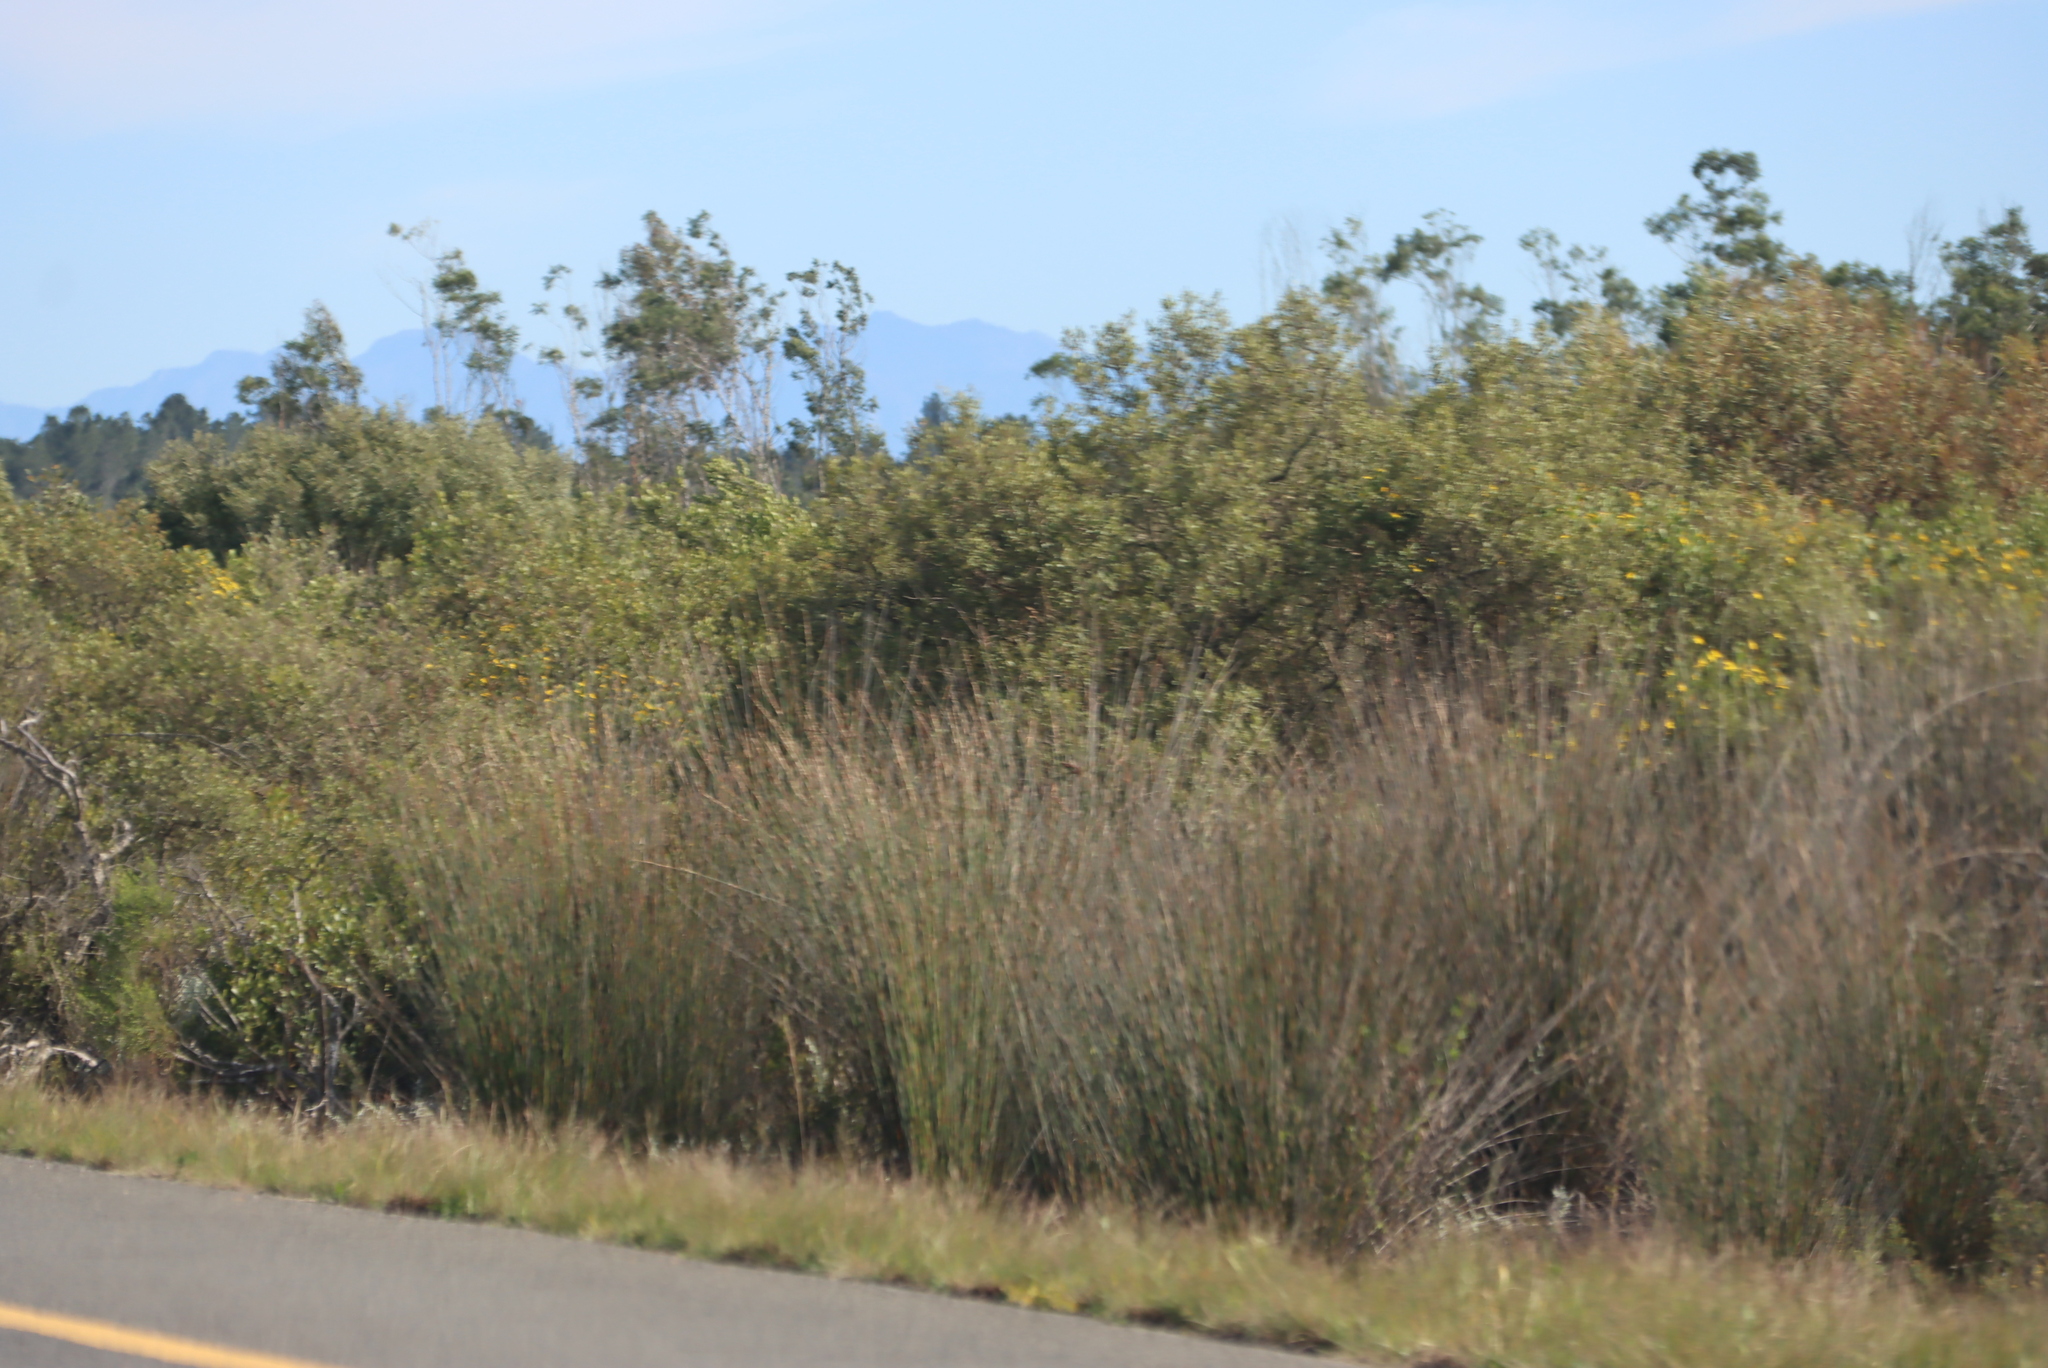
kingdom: Plantae
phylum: Tracheophyta
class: Liliopsida
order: Poales
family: Restionaceae
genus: Thamnochortus
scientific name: Thamnochortus insignis
